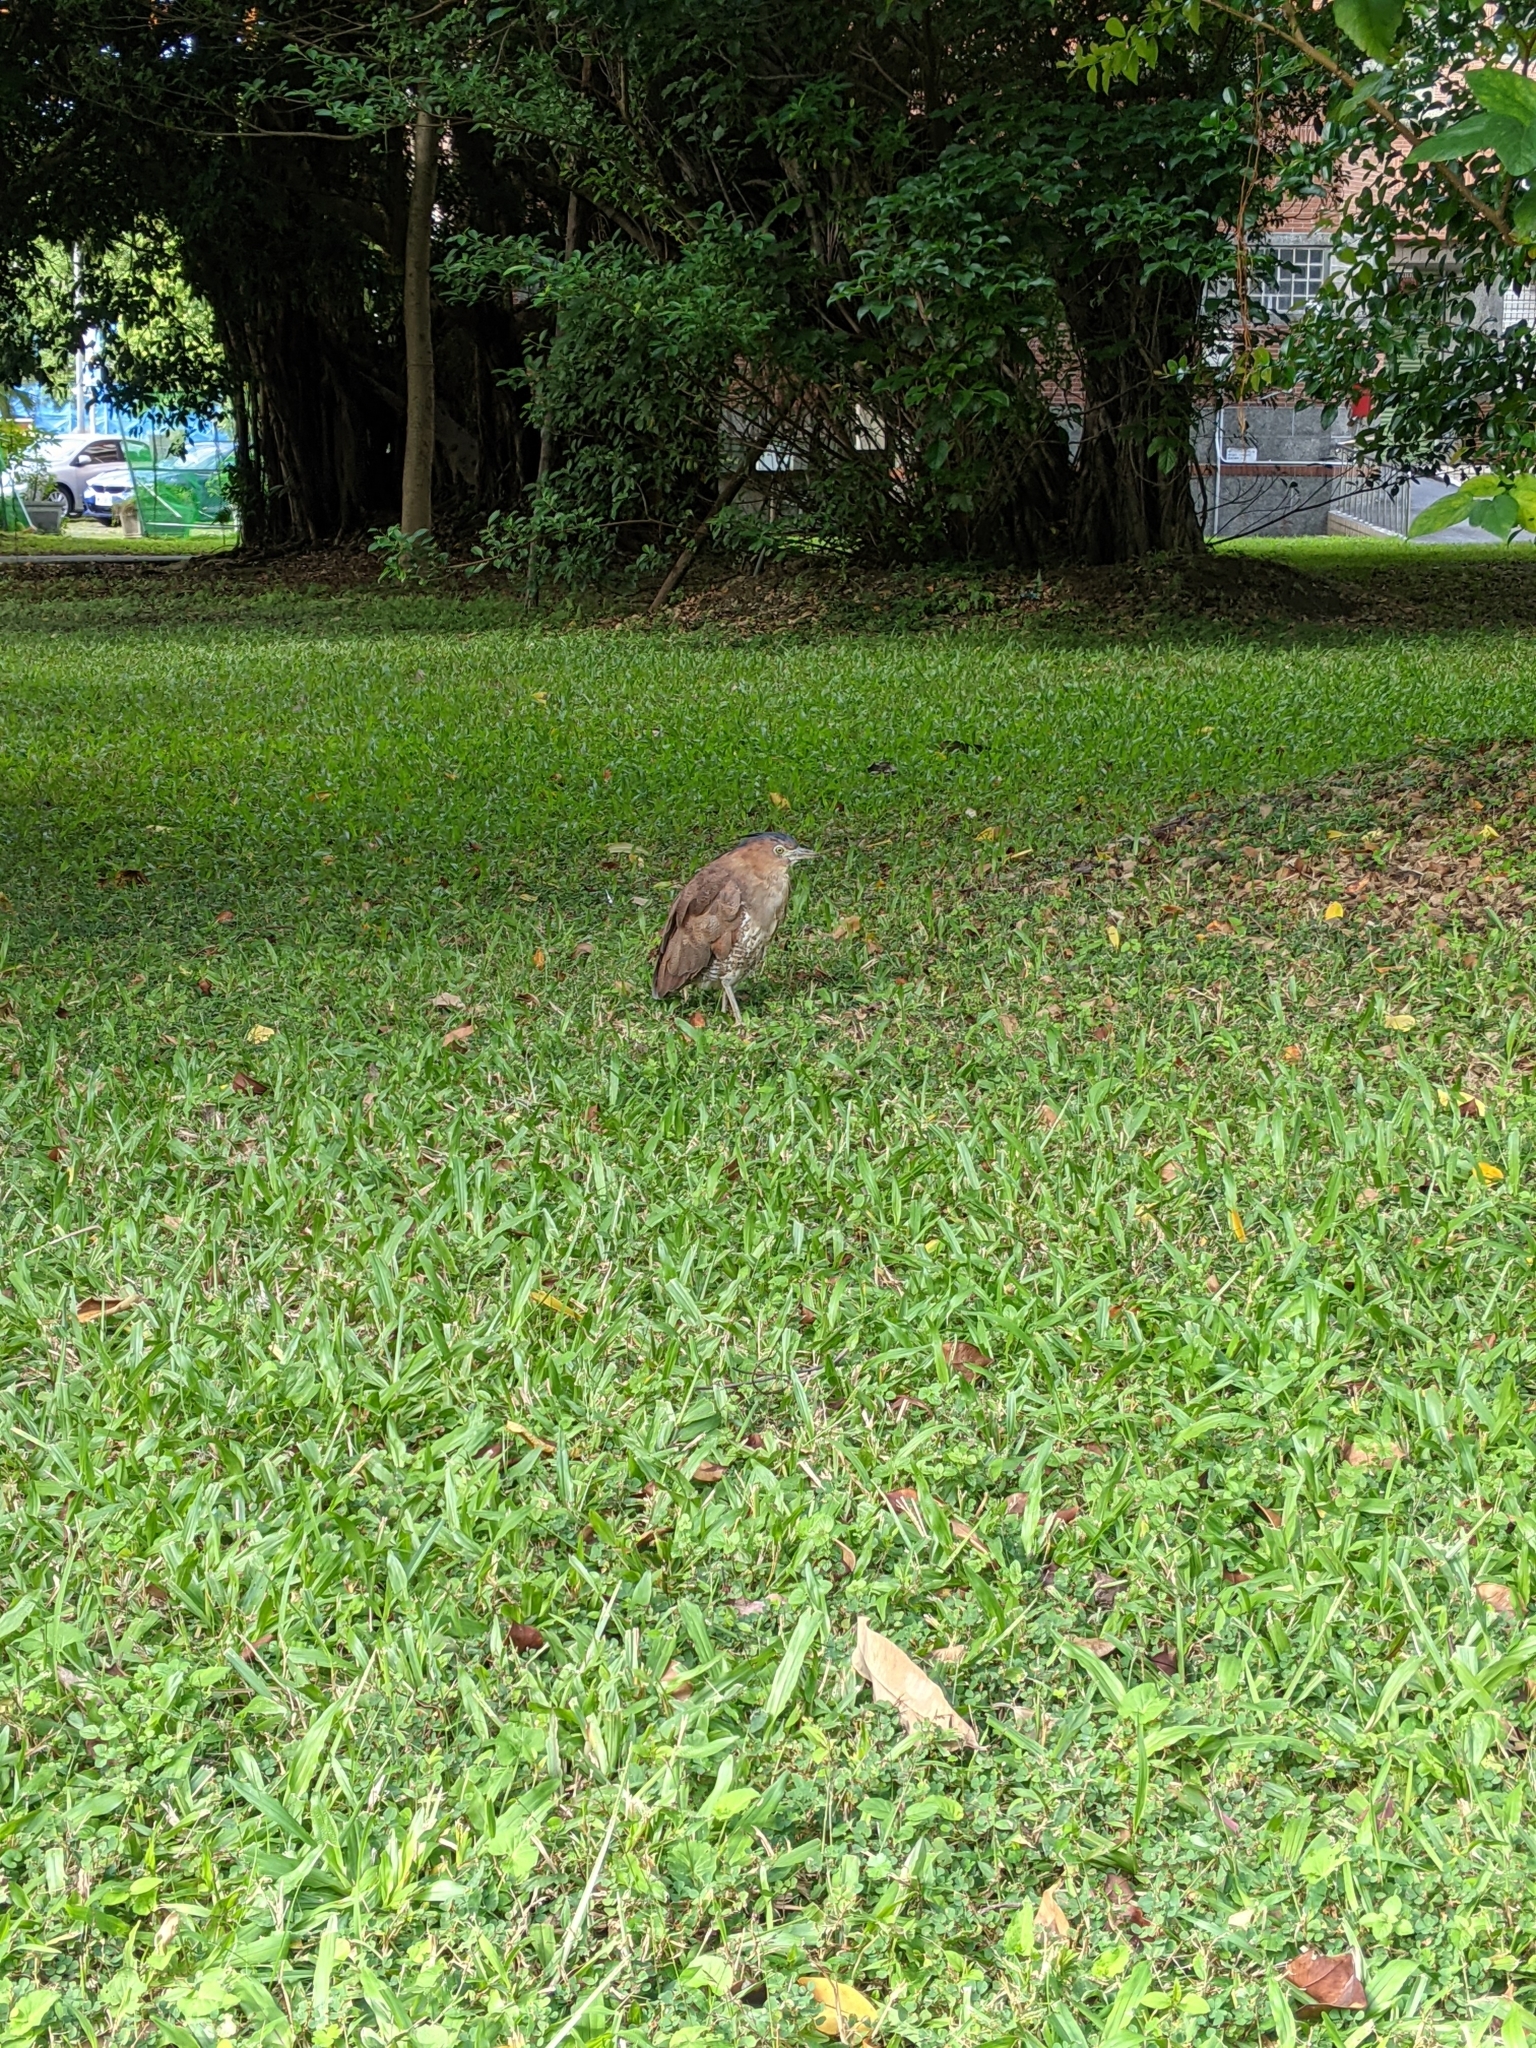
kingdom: Animalia
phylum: Chordata
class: Aves
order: Pelecaniformes
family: Ardeidae
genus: Gorsachius
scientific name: Gorsachius melanolophus
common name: Malayan night heron
